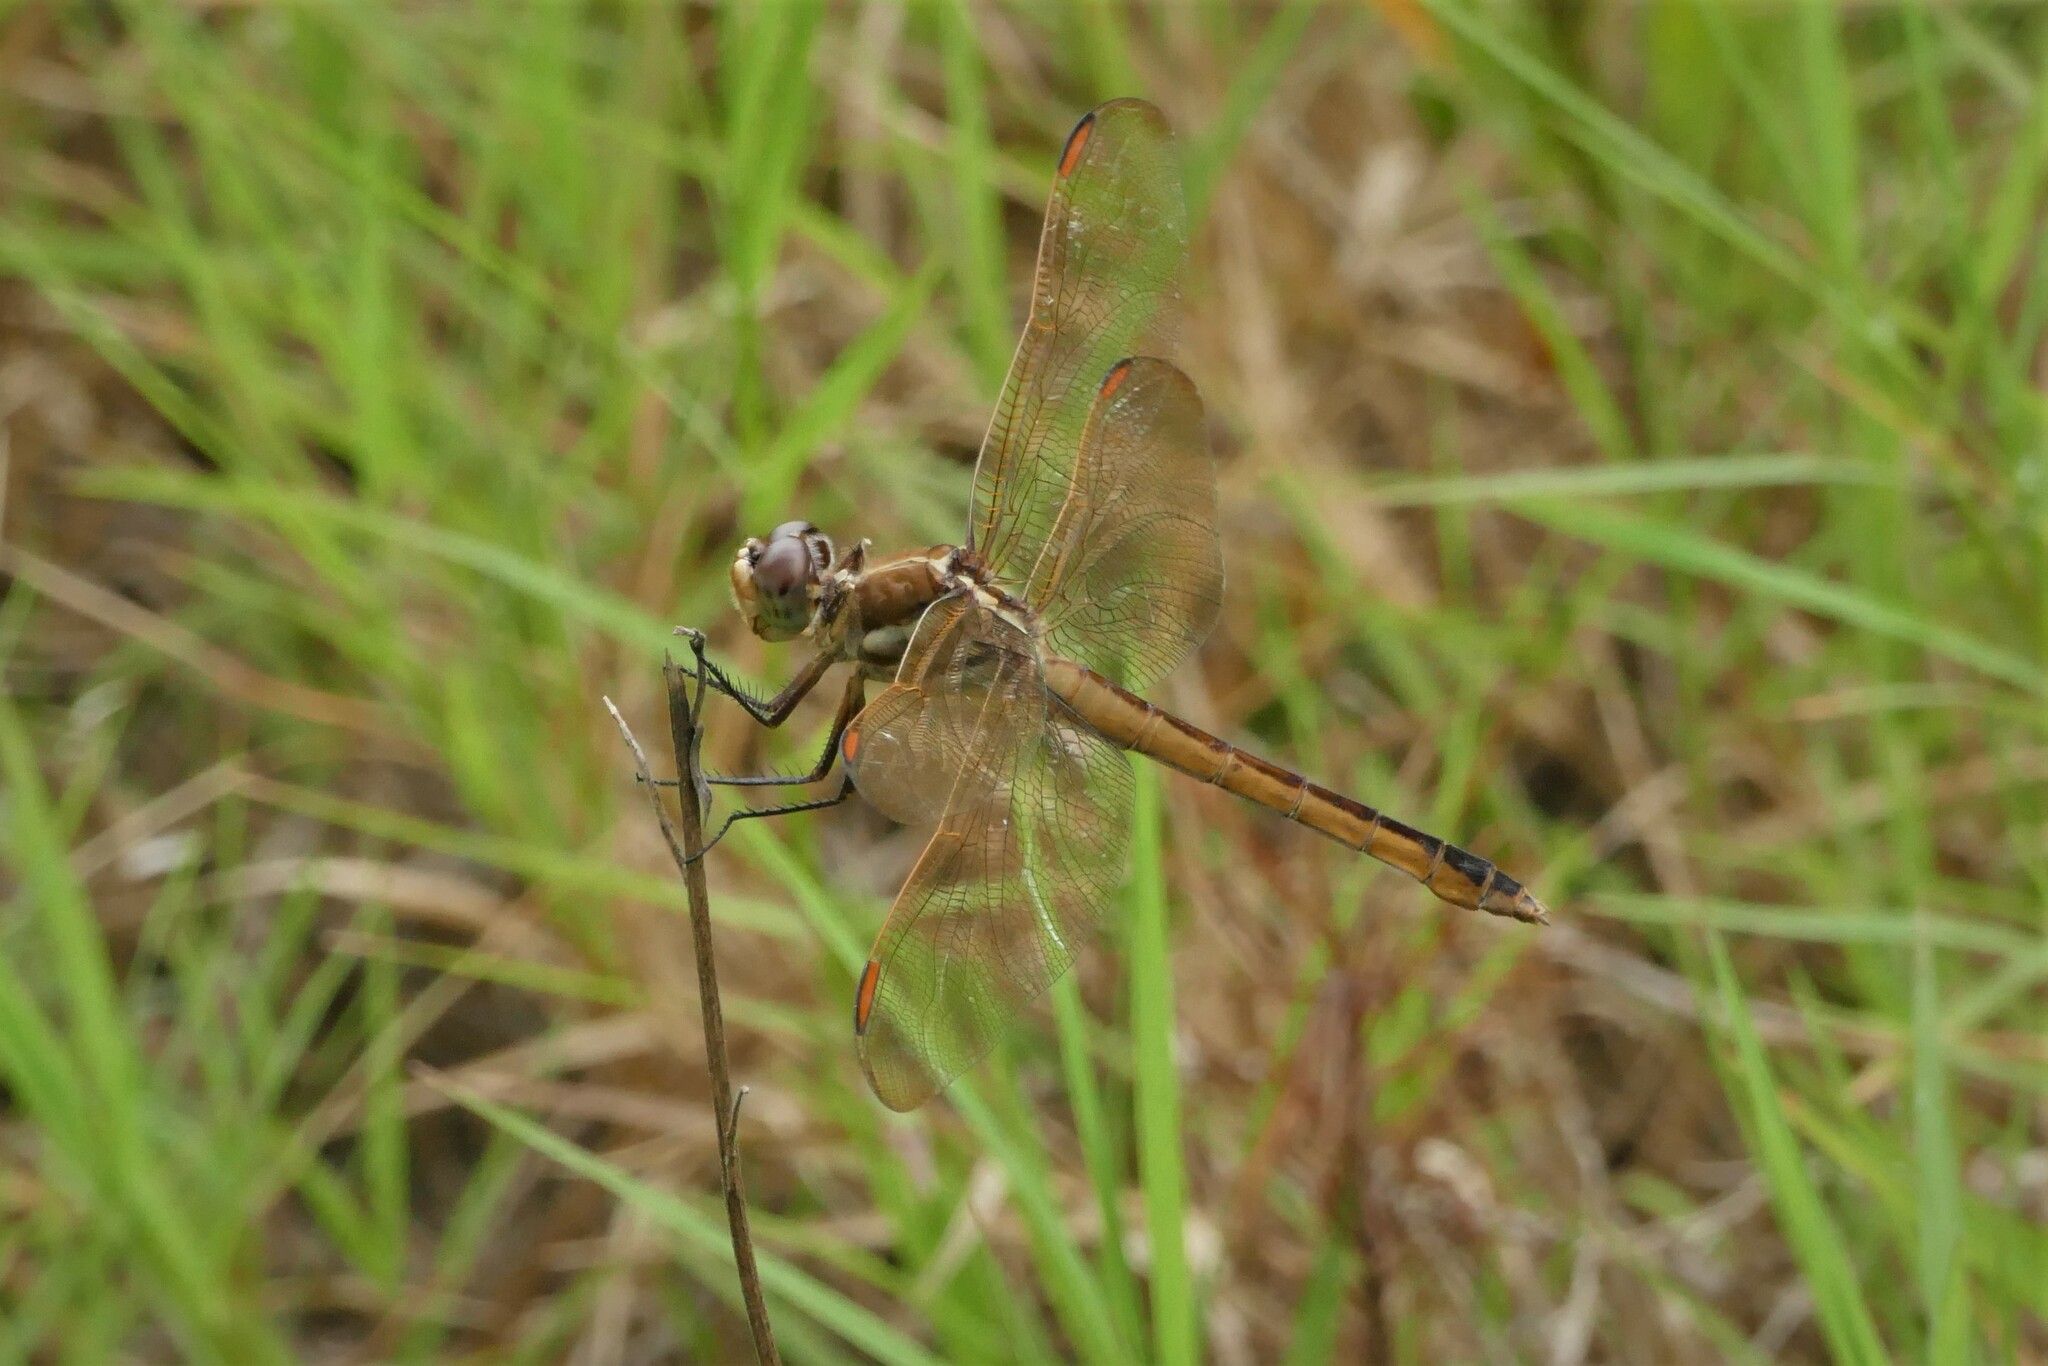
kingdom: Animalia
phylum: Arthropoda
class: Insecta
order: Odonata
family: Libellulidae
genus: Libellula
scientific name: Libellula auripennis
